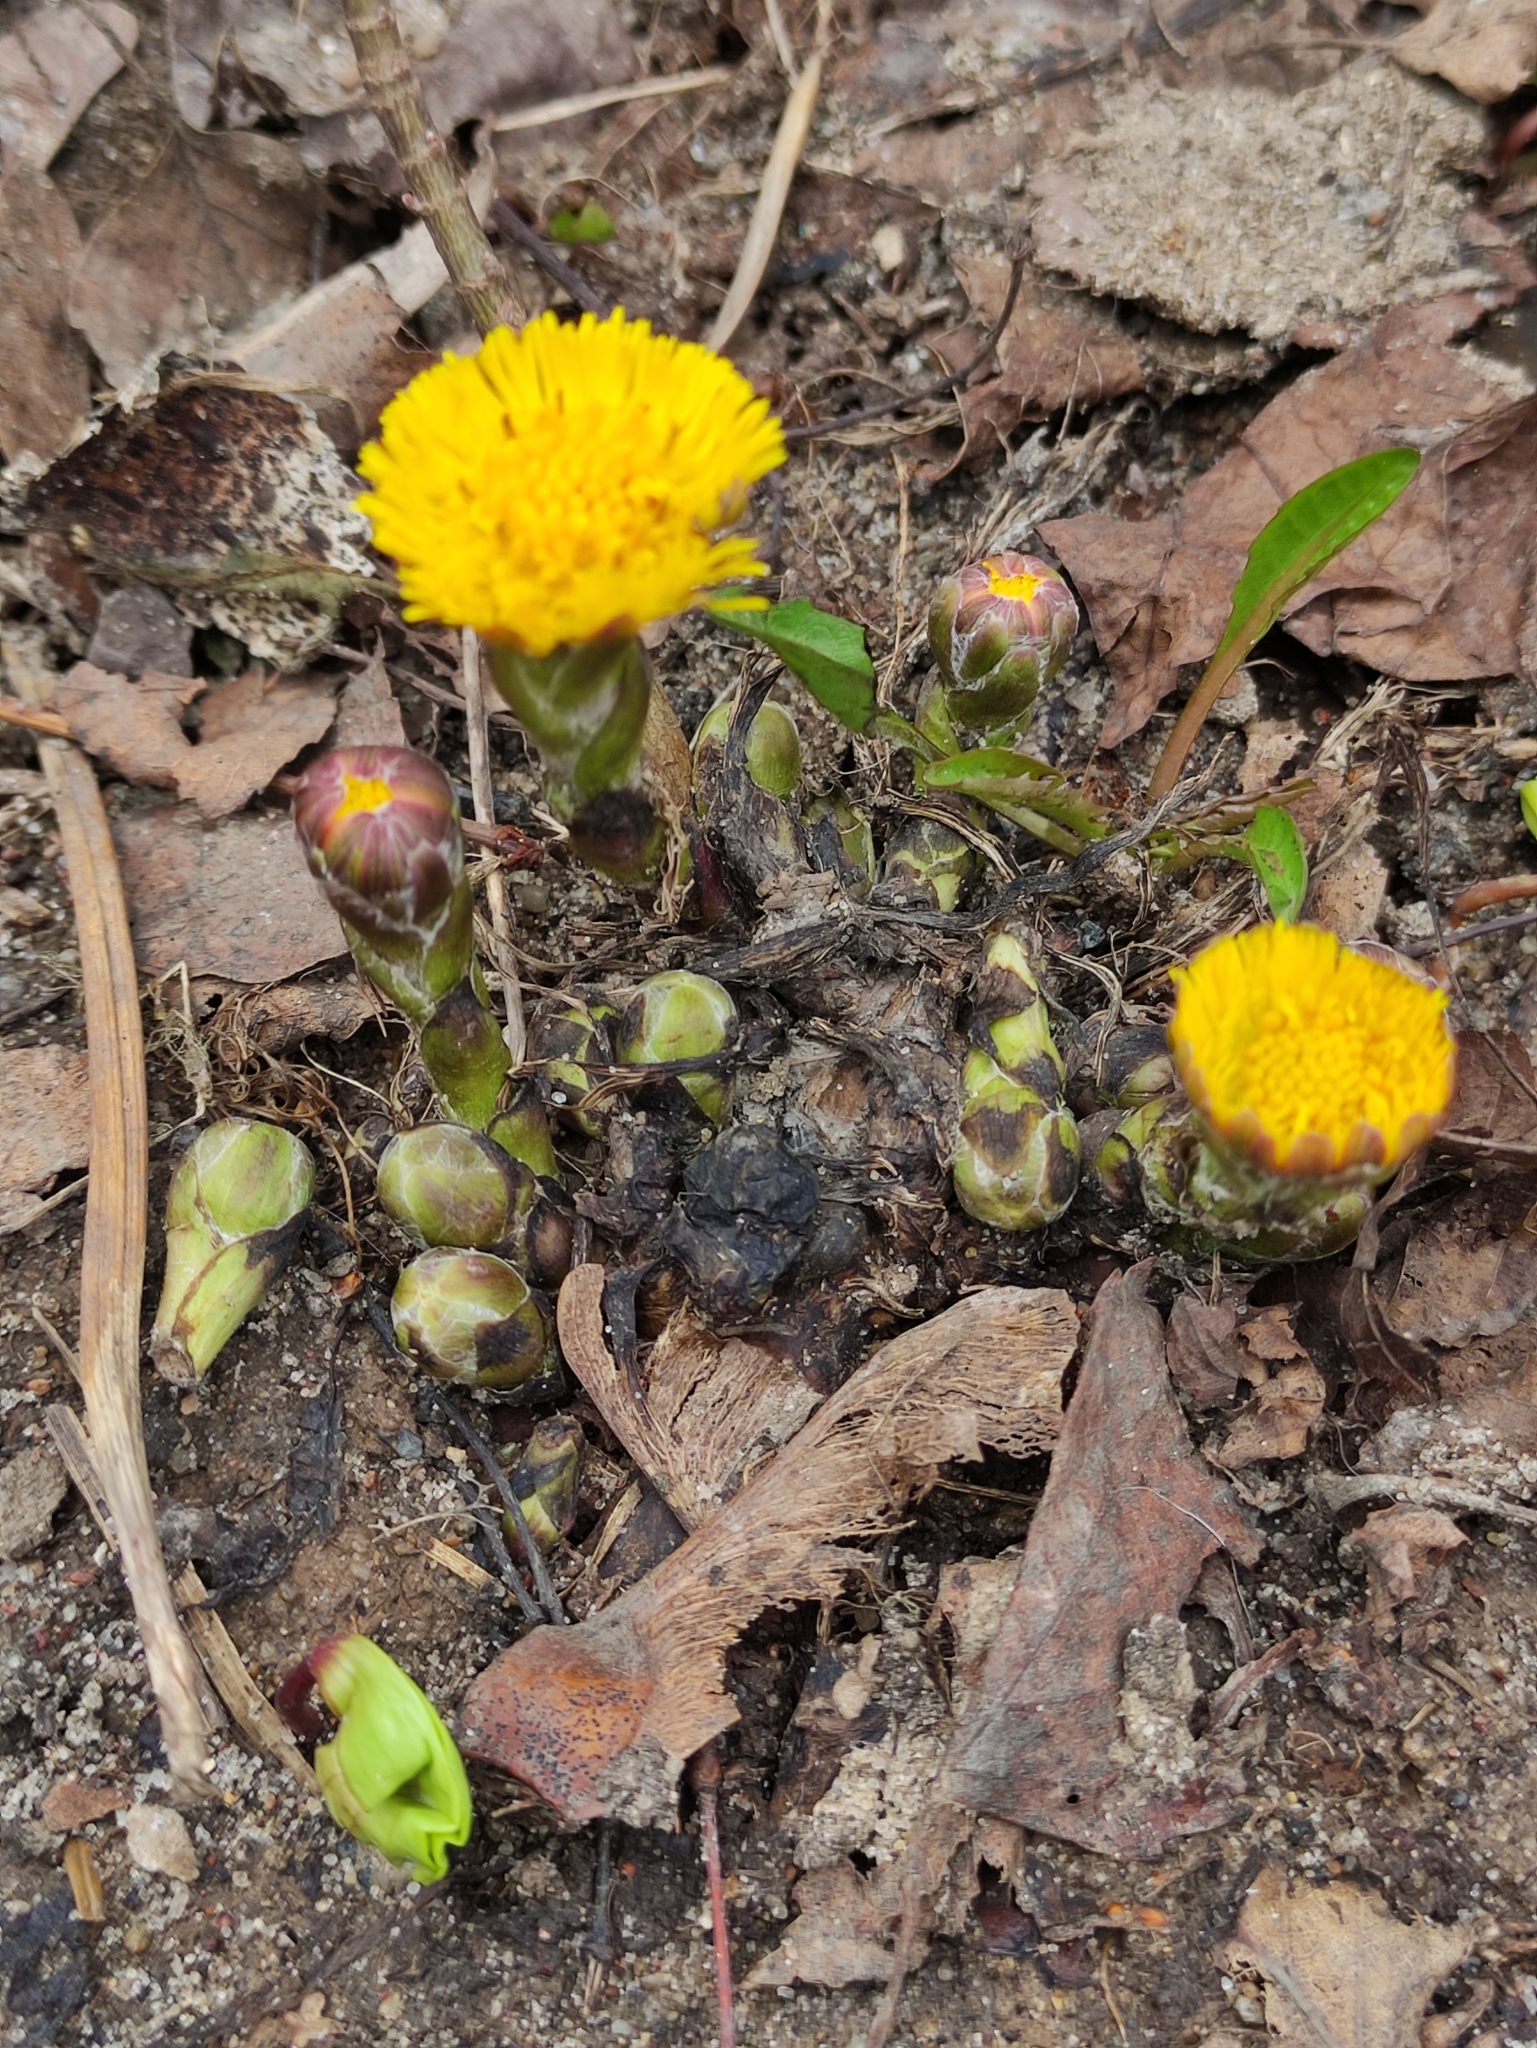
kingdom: Plantae
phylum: Tracheophyta
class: Magnoliopsida
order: Asterales
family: Asteraceae
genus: Tussilago
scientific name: Tussilago farfara
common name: Coltsfoot
